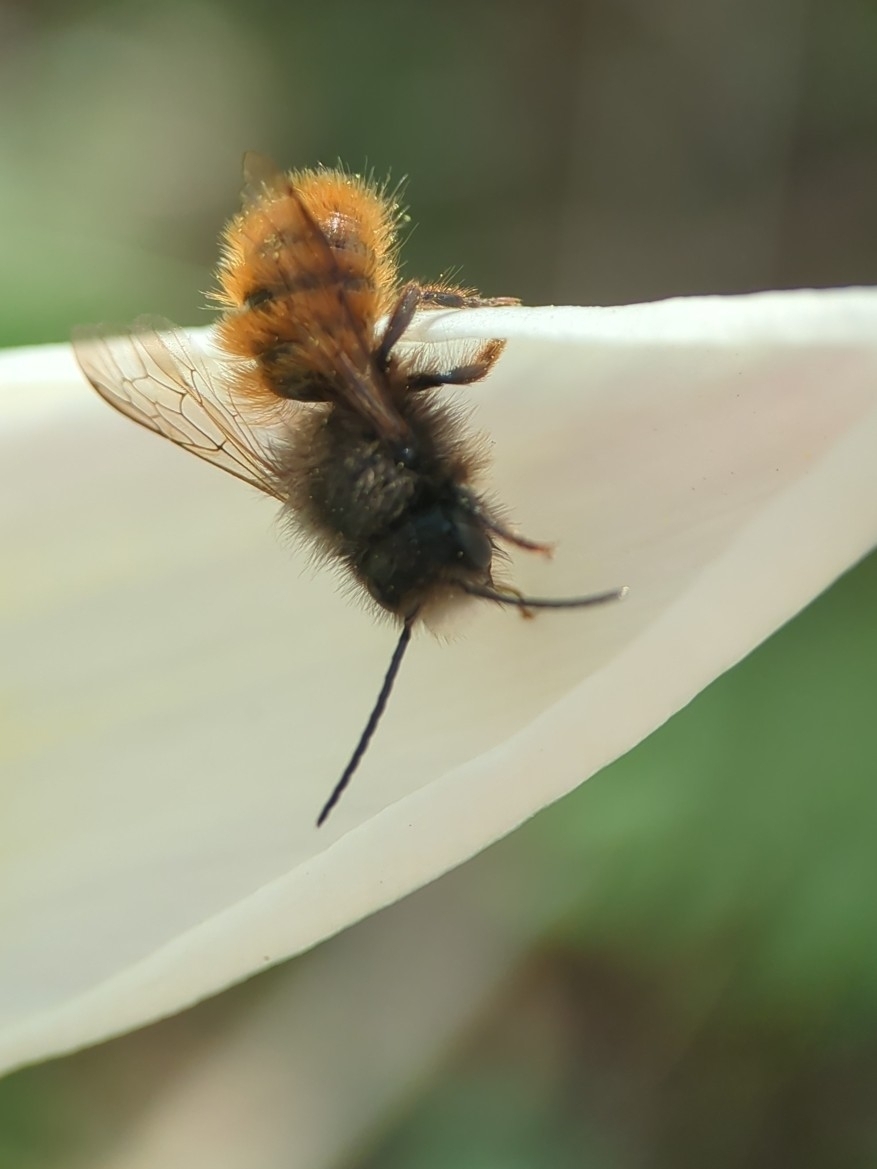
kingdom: Animalia
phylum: Arthropoda
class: Insecta
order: Hymenoptera
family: Megachilidae
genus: Osmia
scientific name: Osmia cornuta
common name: Mason bee
